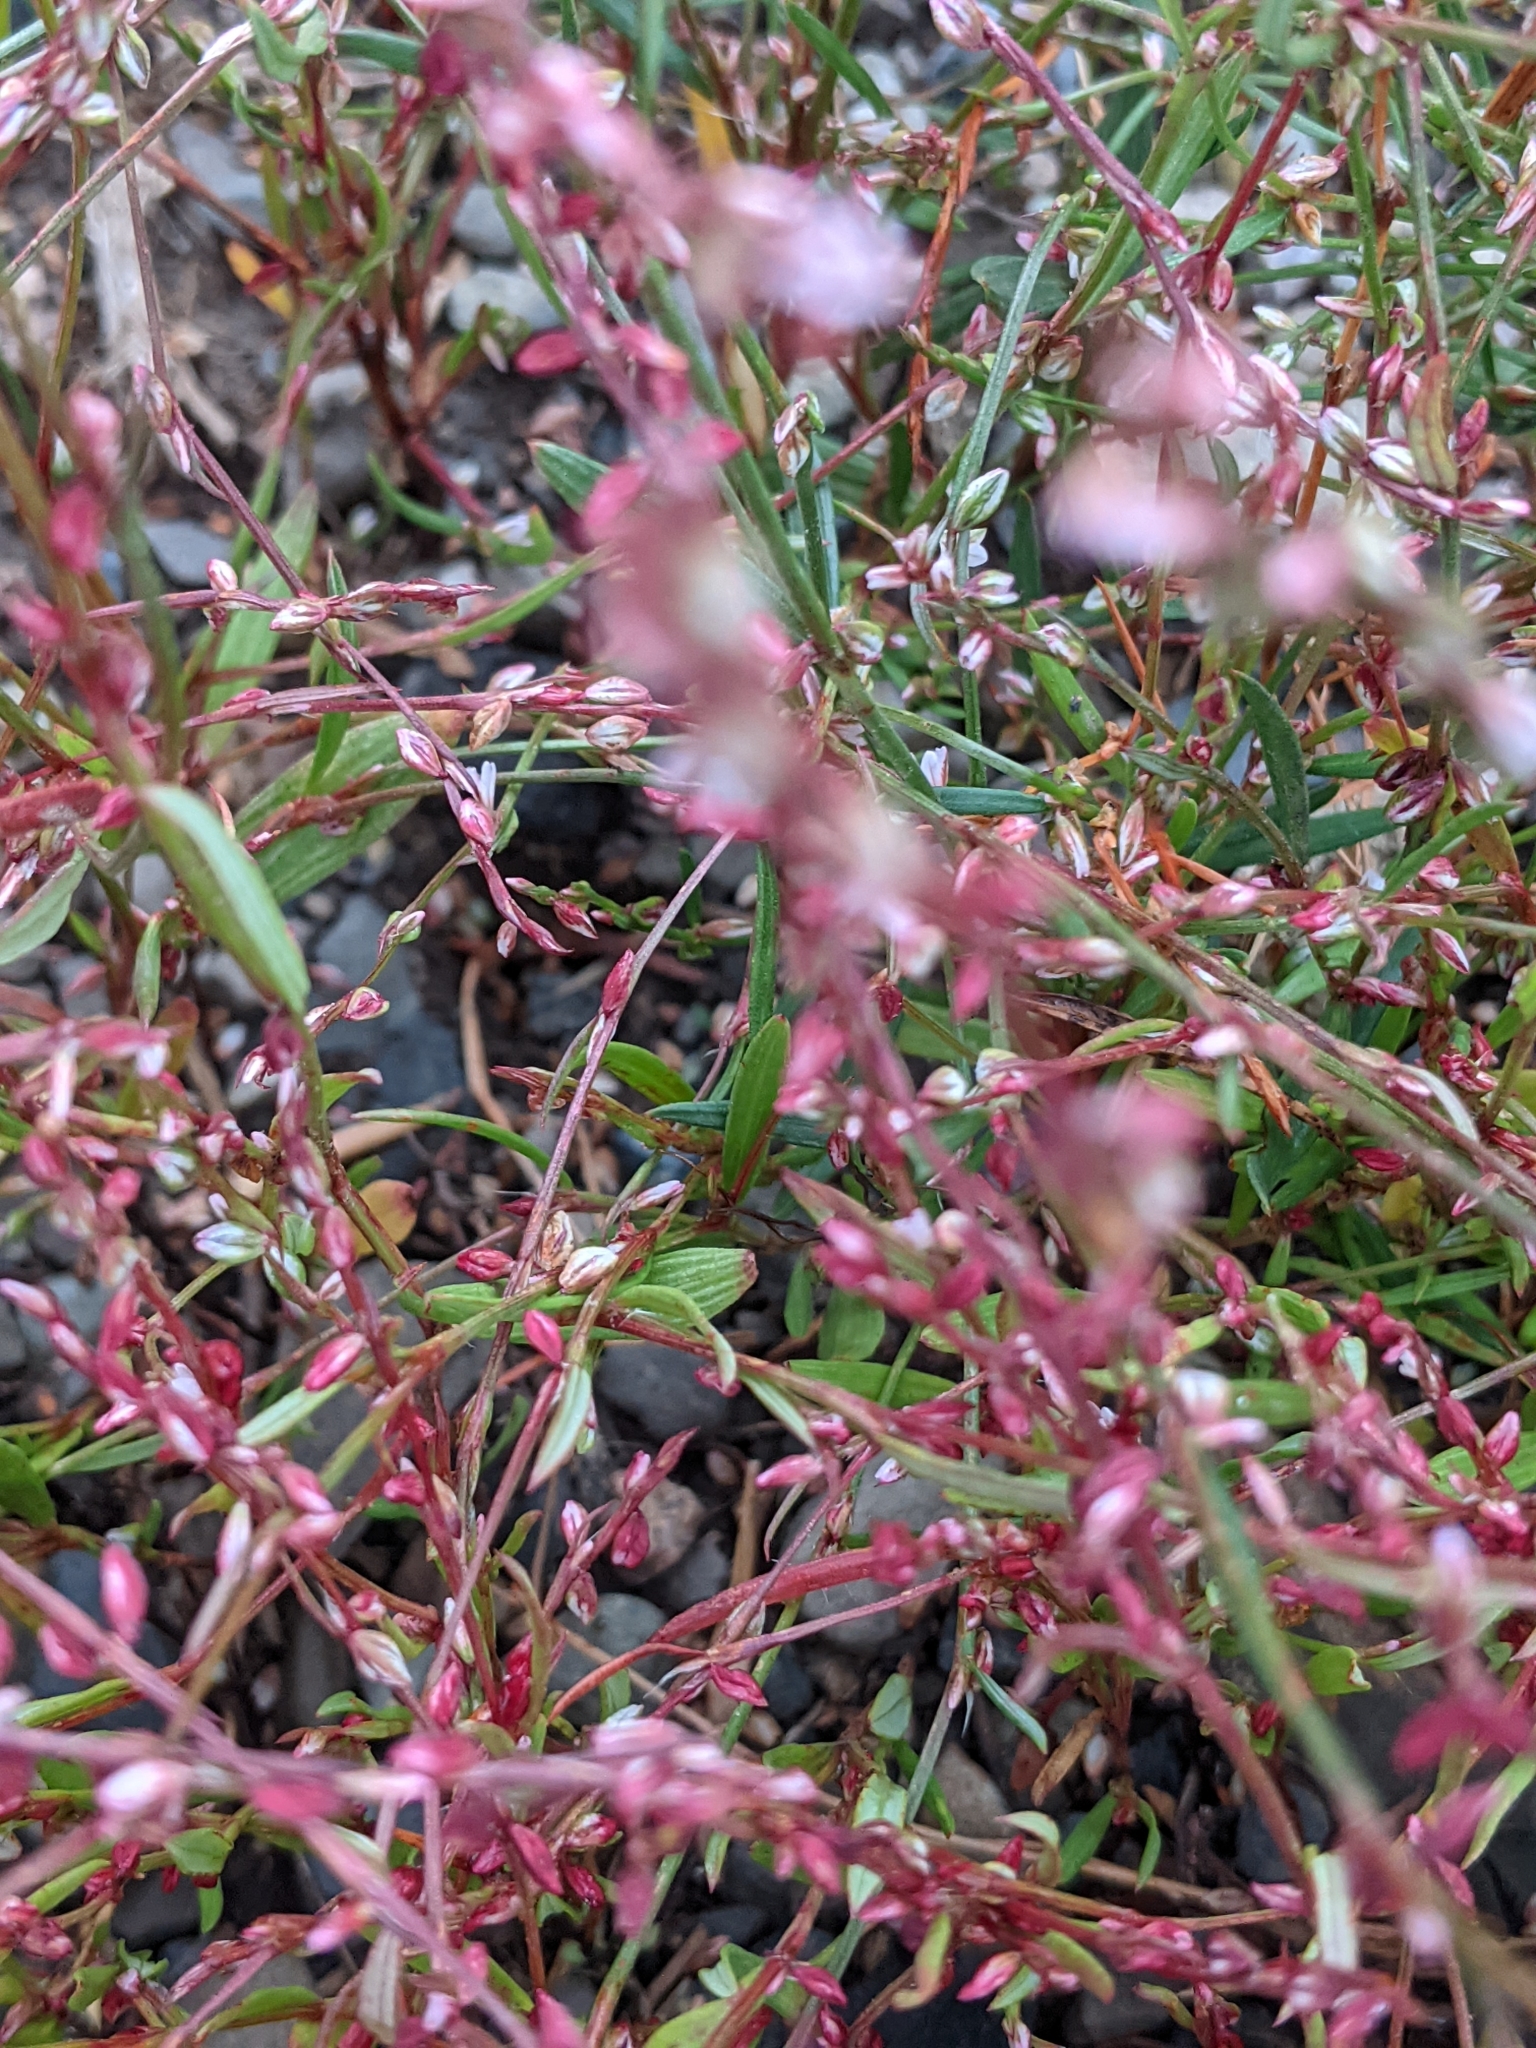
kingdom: Plantae
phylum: Tracheophyta
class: Magnoliopsida
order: Caryophyllales
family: Polygonaceae
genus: Polygonum
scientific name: Polygonum aviculare
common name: Prostrate knotweed
